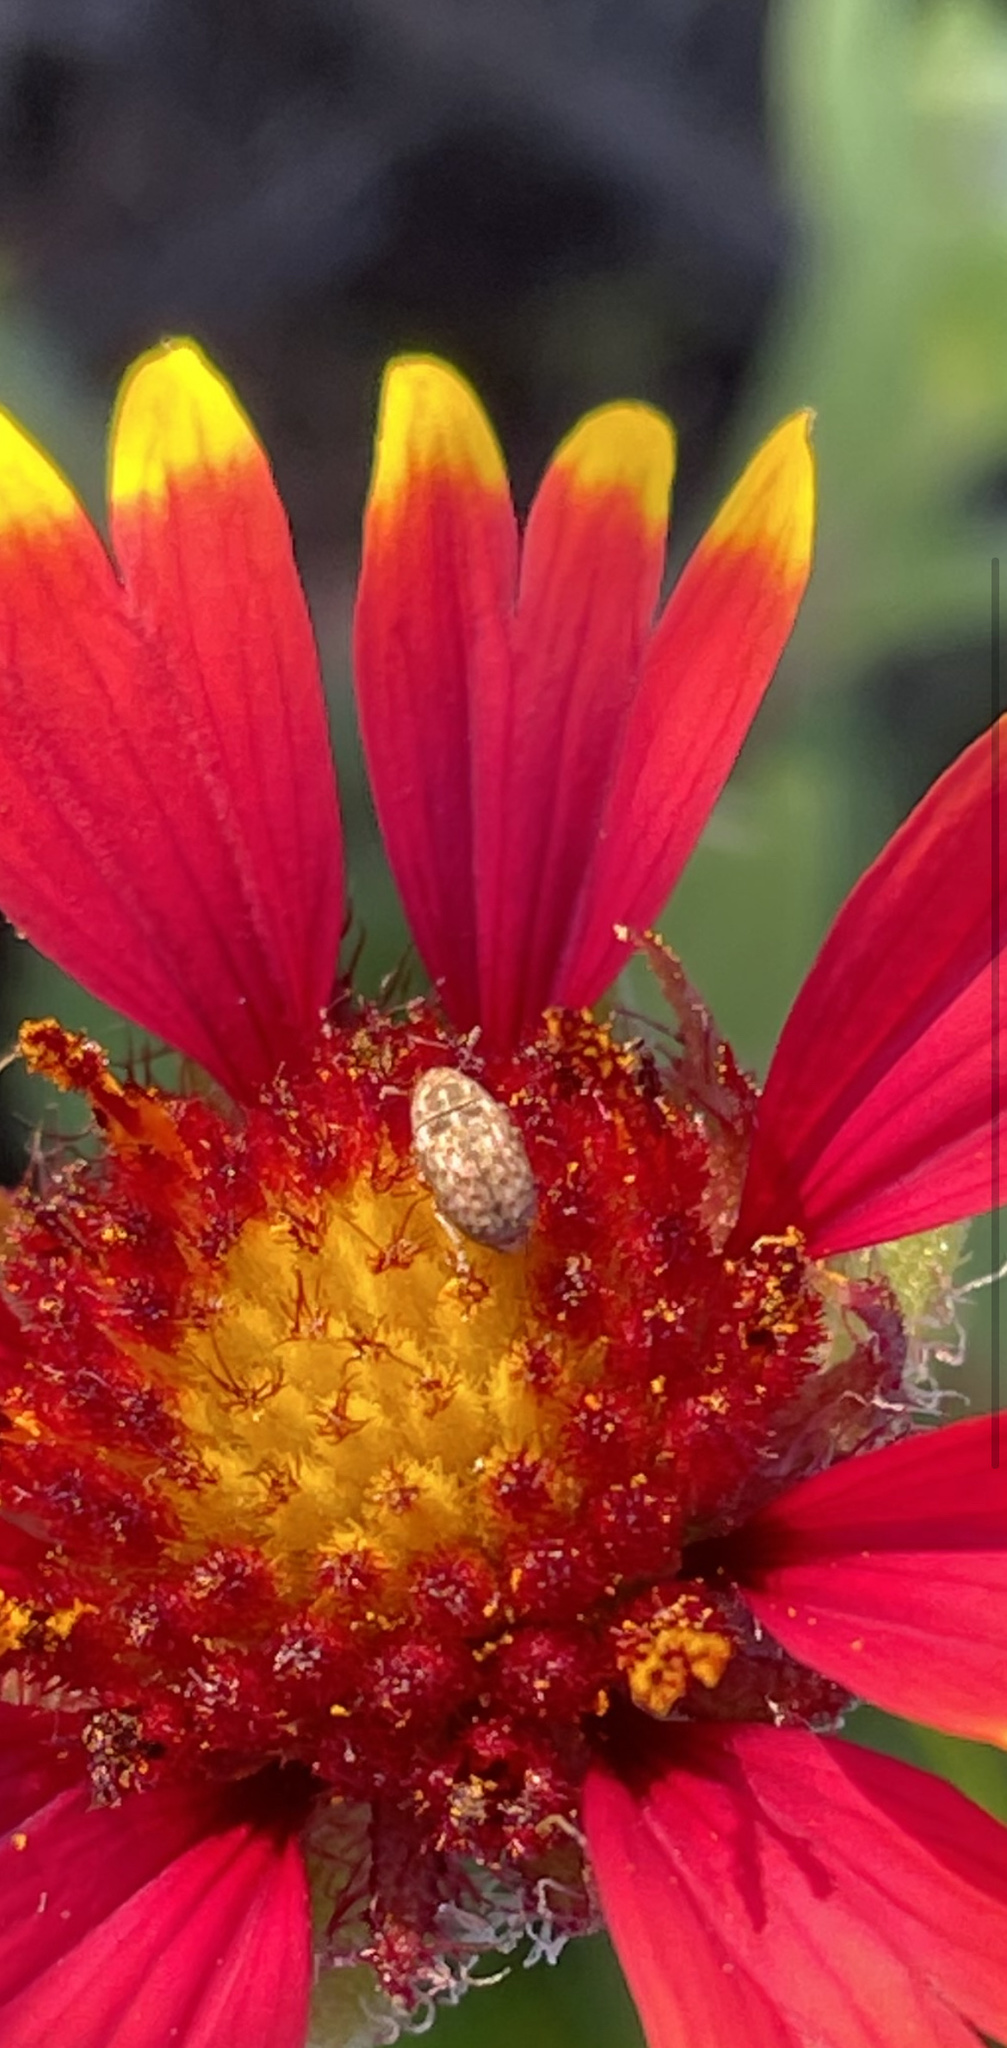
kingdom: Animalia
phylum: Arthropoda
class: Insecta
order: Coleoptera
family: Anthribidae
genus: Trigonorhinus
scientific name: Trigonorhinus limbatus
